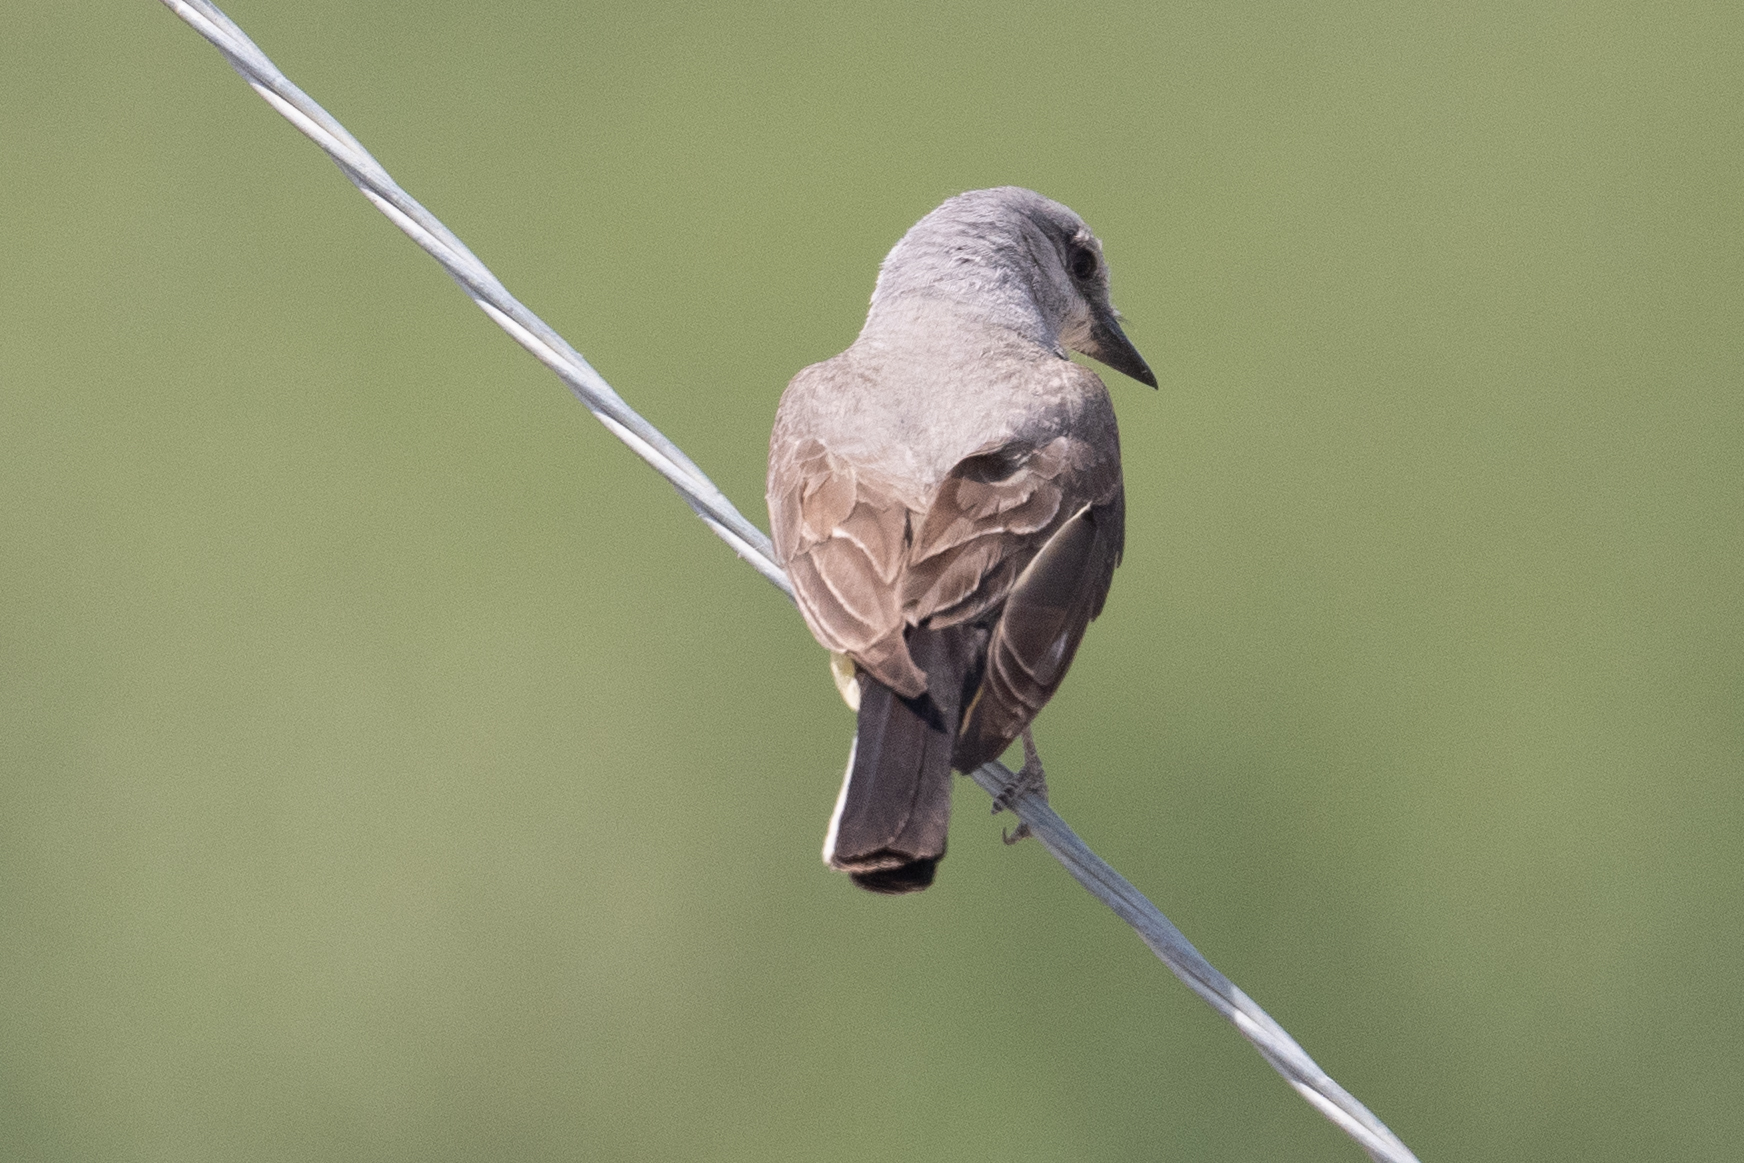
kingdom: Animalia
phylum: Chordata
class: Aves
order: Passeriformes
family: Tyrannidae
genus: Tyrannus
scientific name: Tyrannus verticalis
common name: Western kingbird
